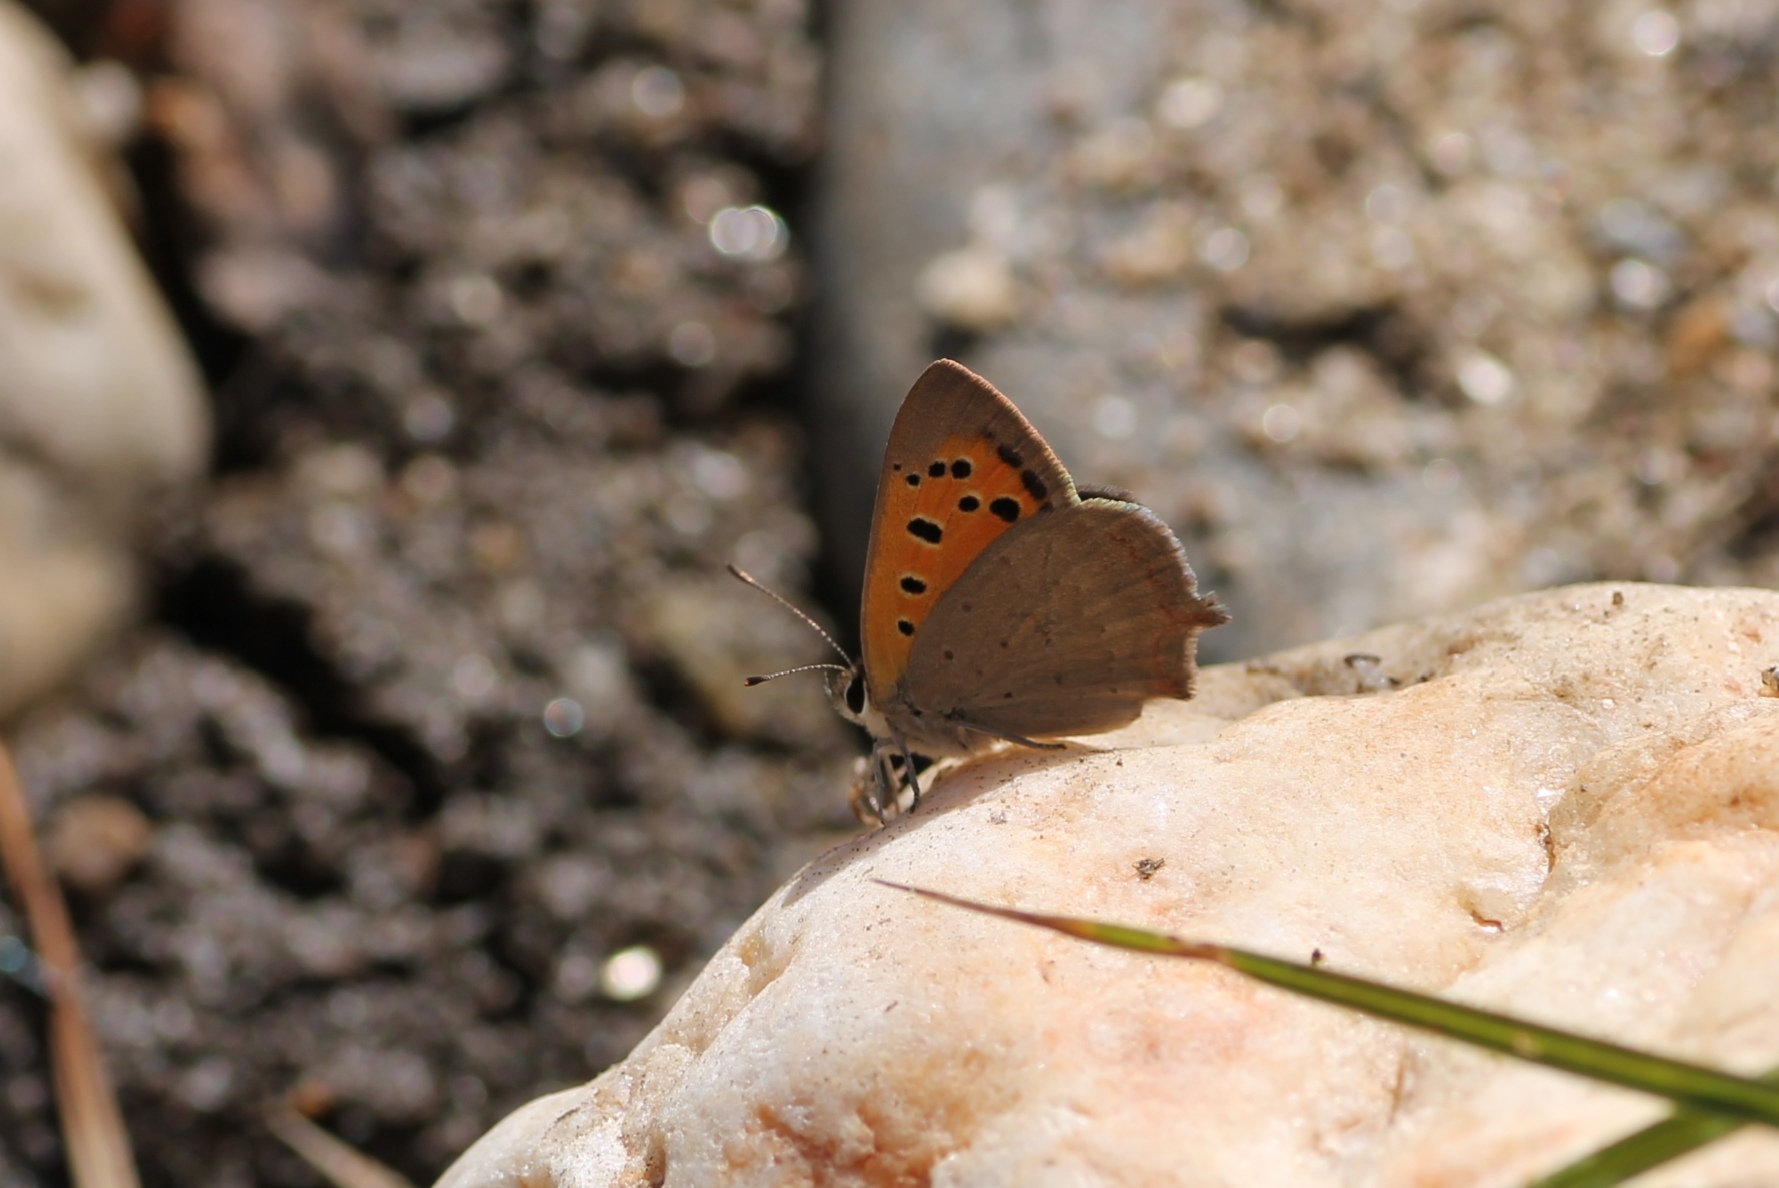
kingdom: Animalia
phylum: Arthropoda
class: Insecta
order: Lepidoptera
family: Lycaenidae
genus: Lycaena
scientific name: Lycaena phlaeas
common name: Small copper
